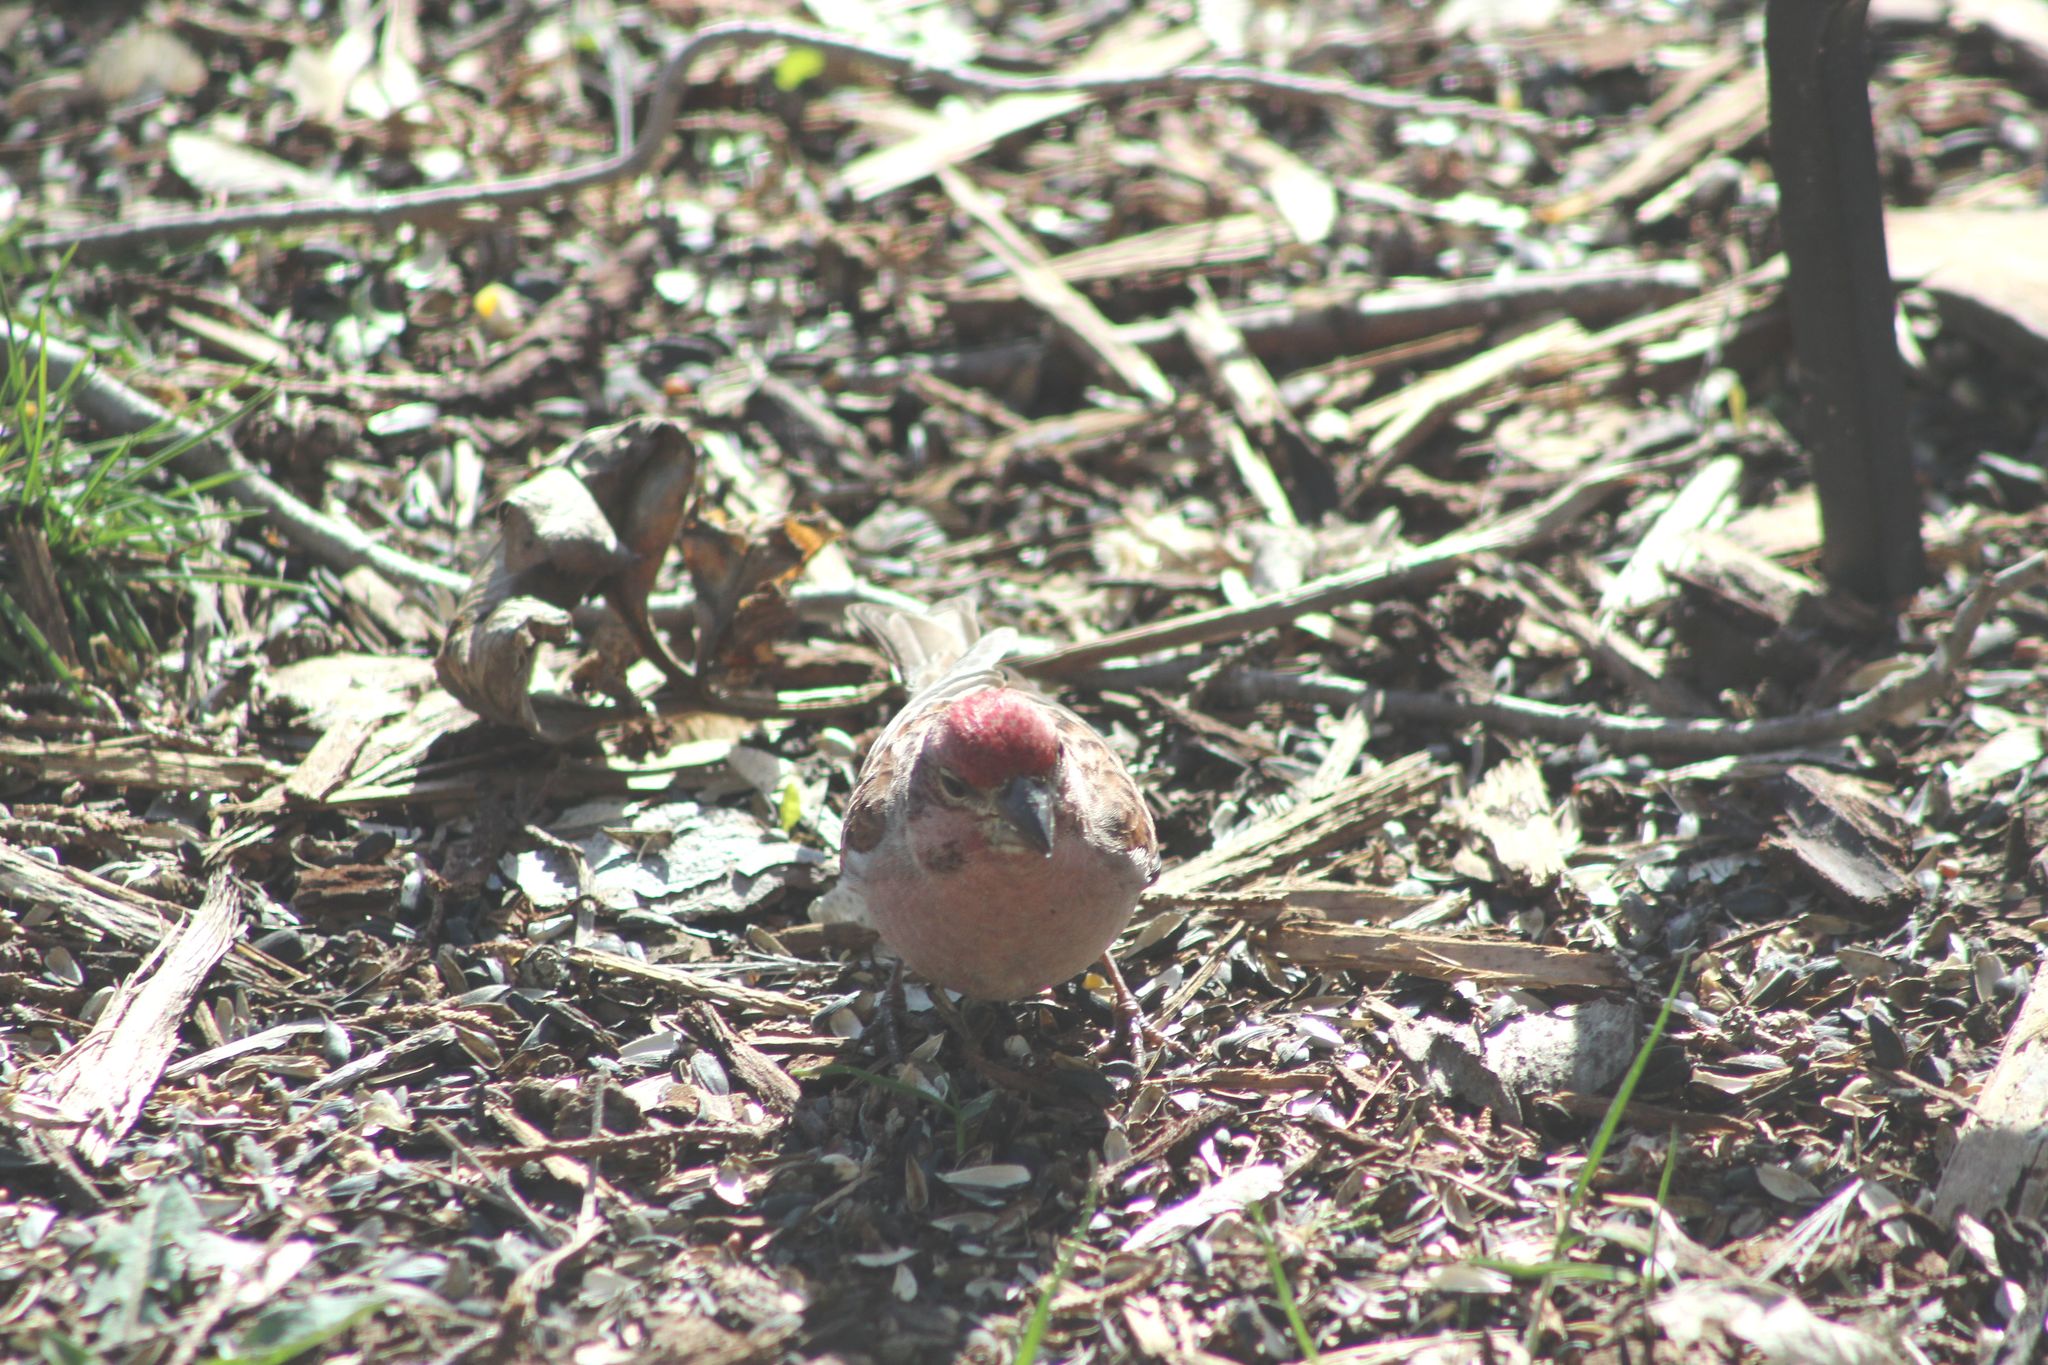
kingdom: Animalia
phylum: Chordata
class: Aves
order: Passeriformes
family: Fringillidae
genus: Haemorhous
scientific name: Haemorhous cassinii
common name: Cassin's finch
